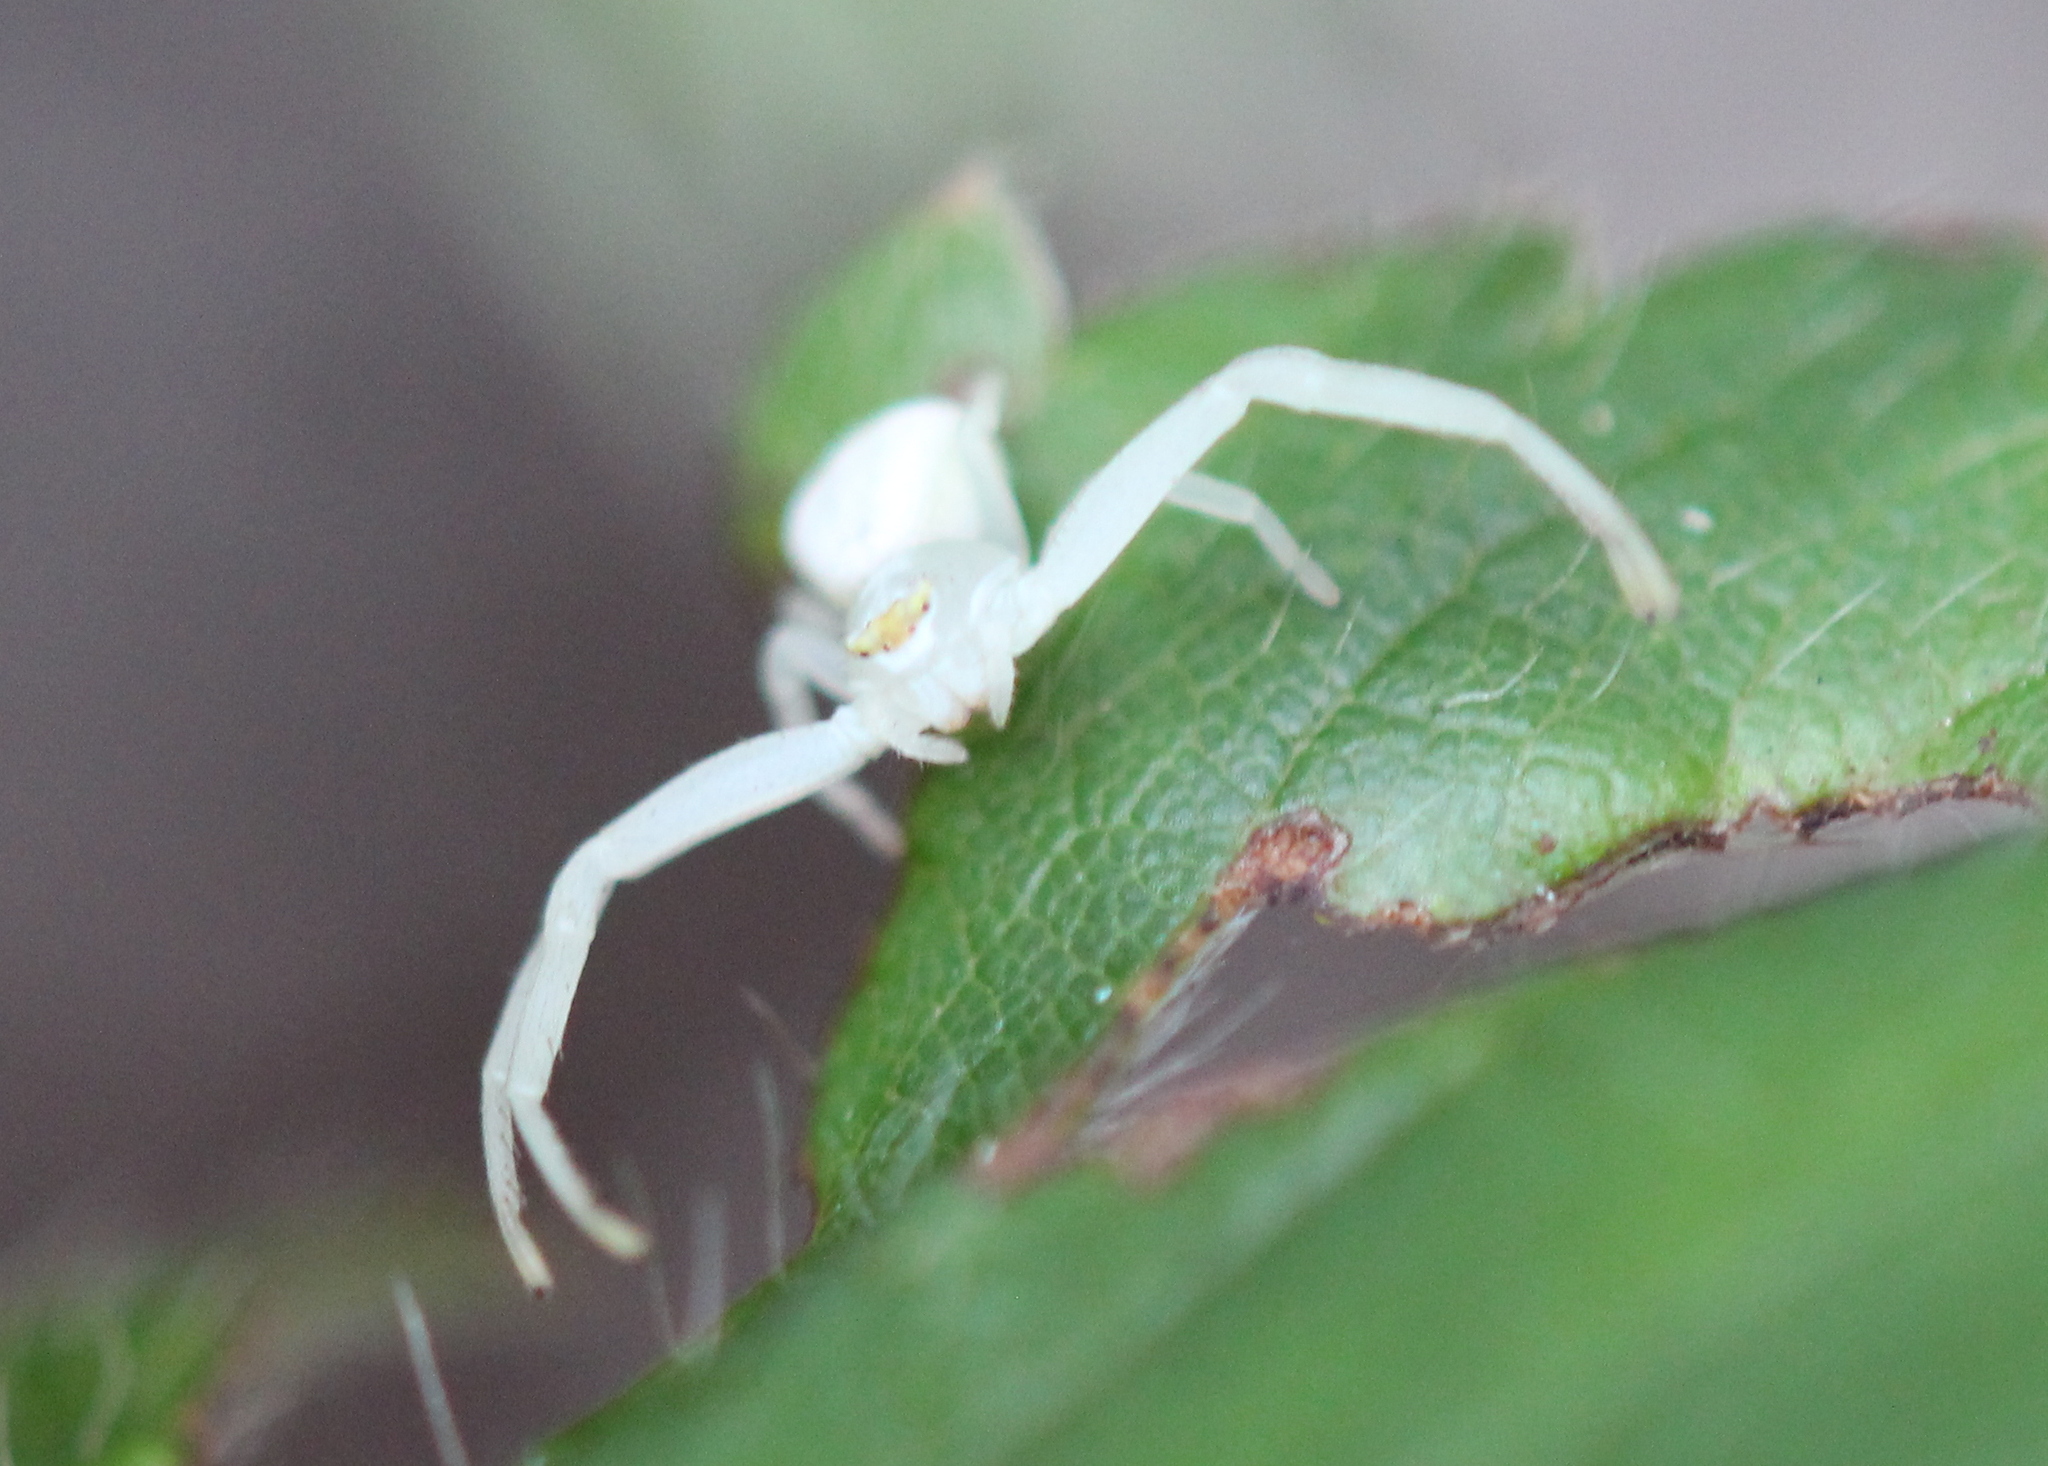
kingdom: Animalia
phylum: Arthropoda
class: Arachnida
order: Araneae
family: Thomisidae
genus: Misumena
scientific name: Misumena vatia
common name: Goldenrod crab spider
